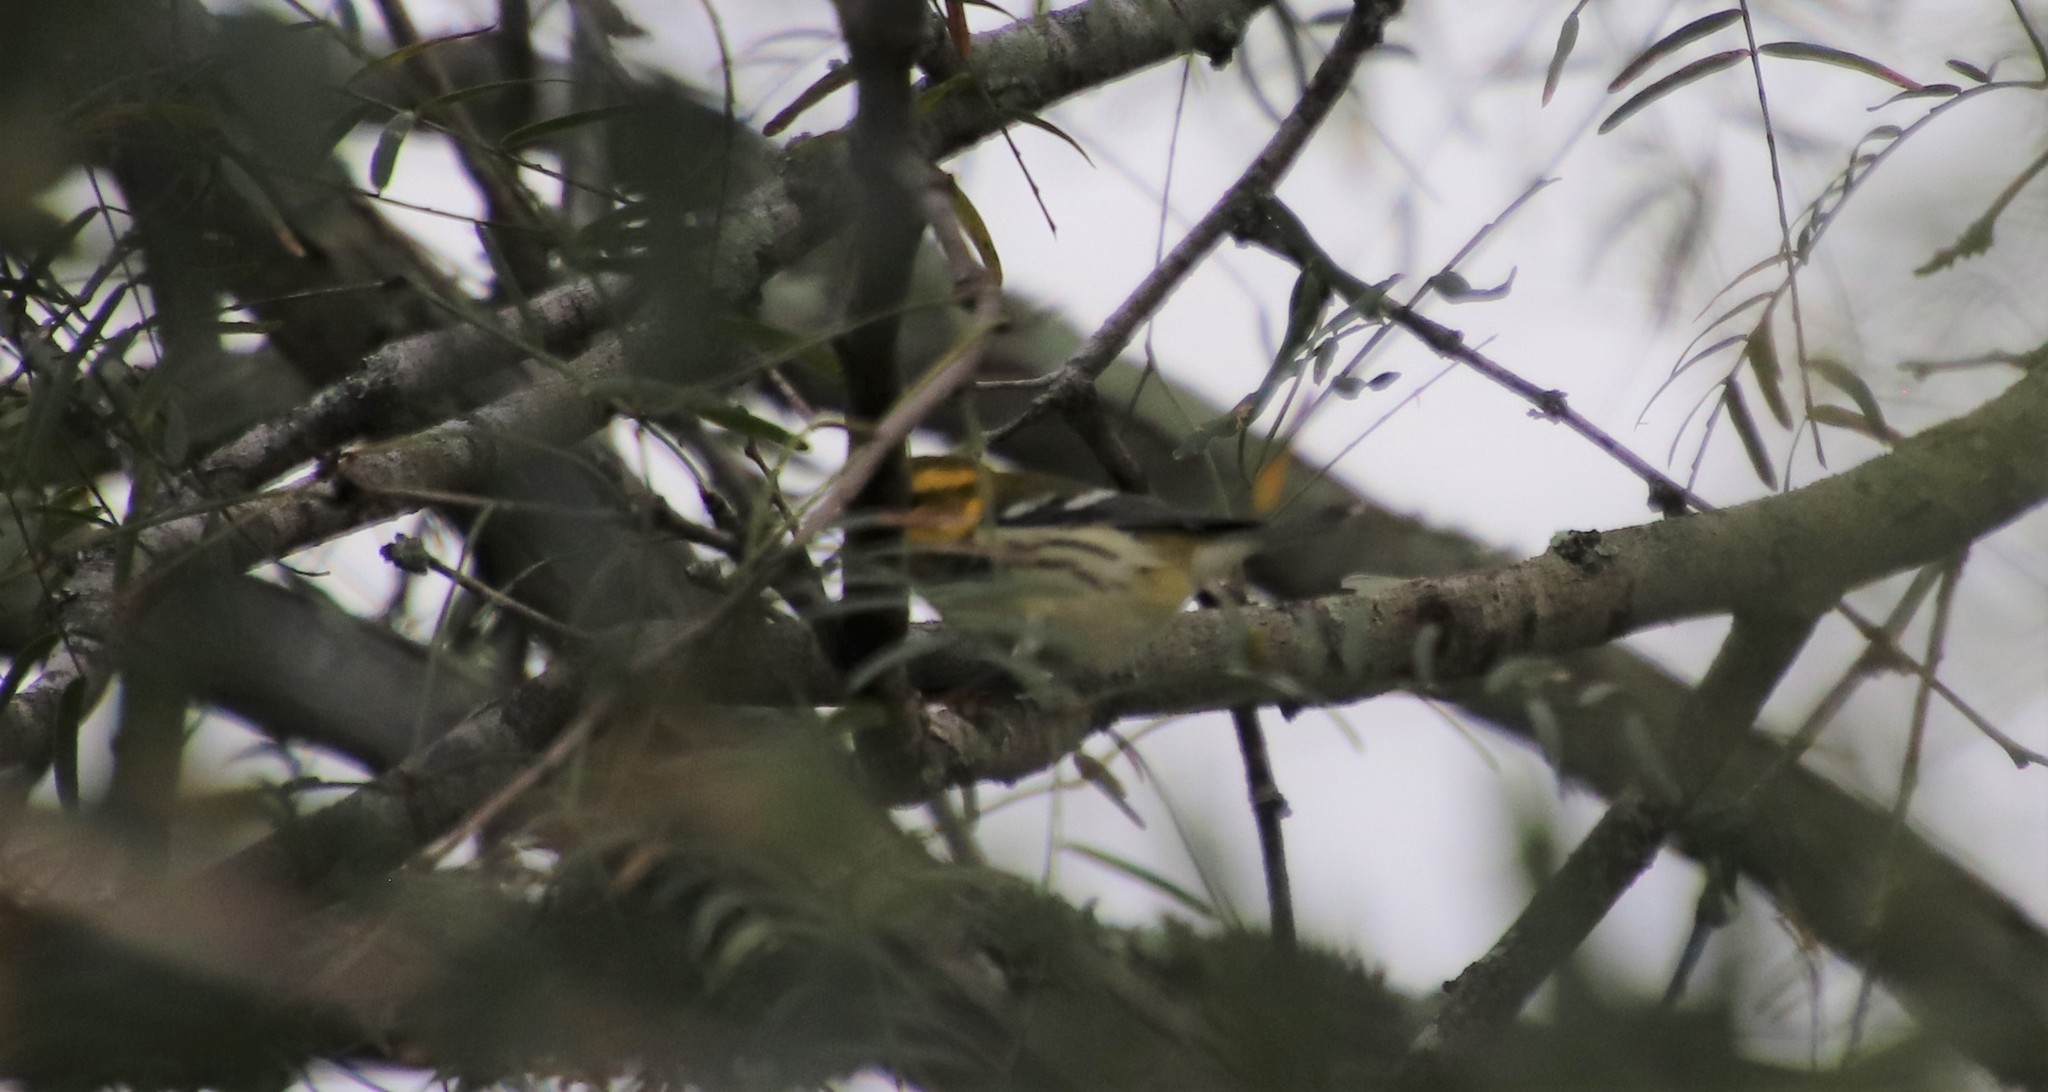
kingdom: Animalia
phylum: Chordata
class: Aves
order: Passeriformes
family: Parulidae
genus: Setophaga
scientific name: Setophaga virens
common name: Black-throated green warbler
